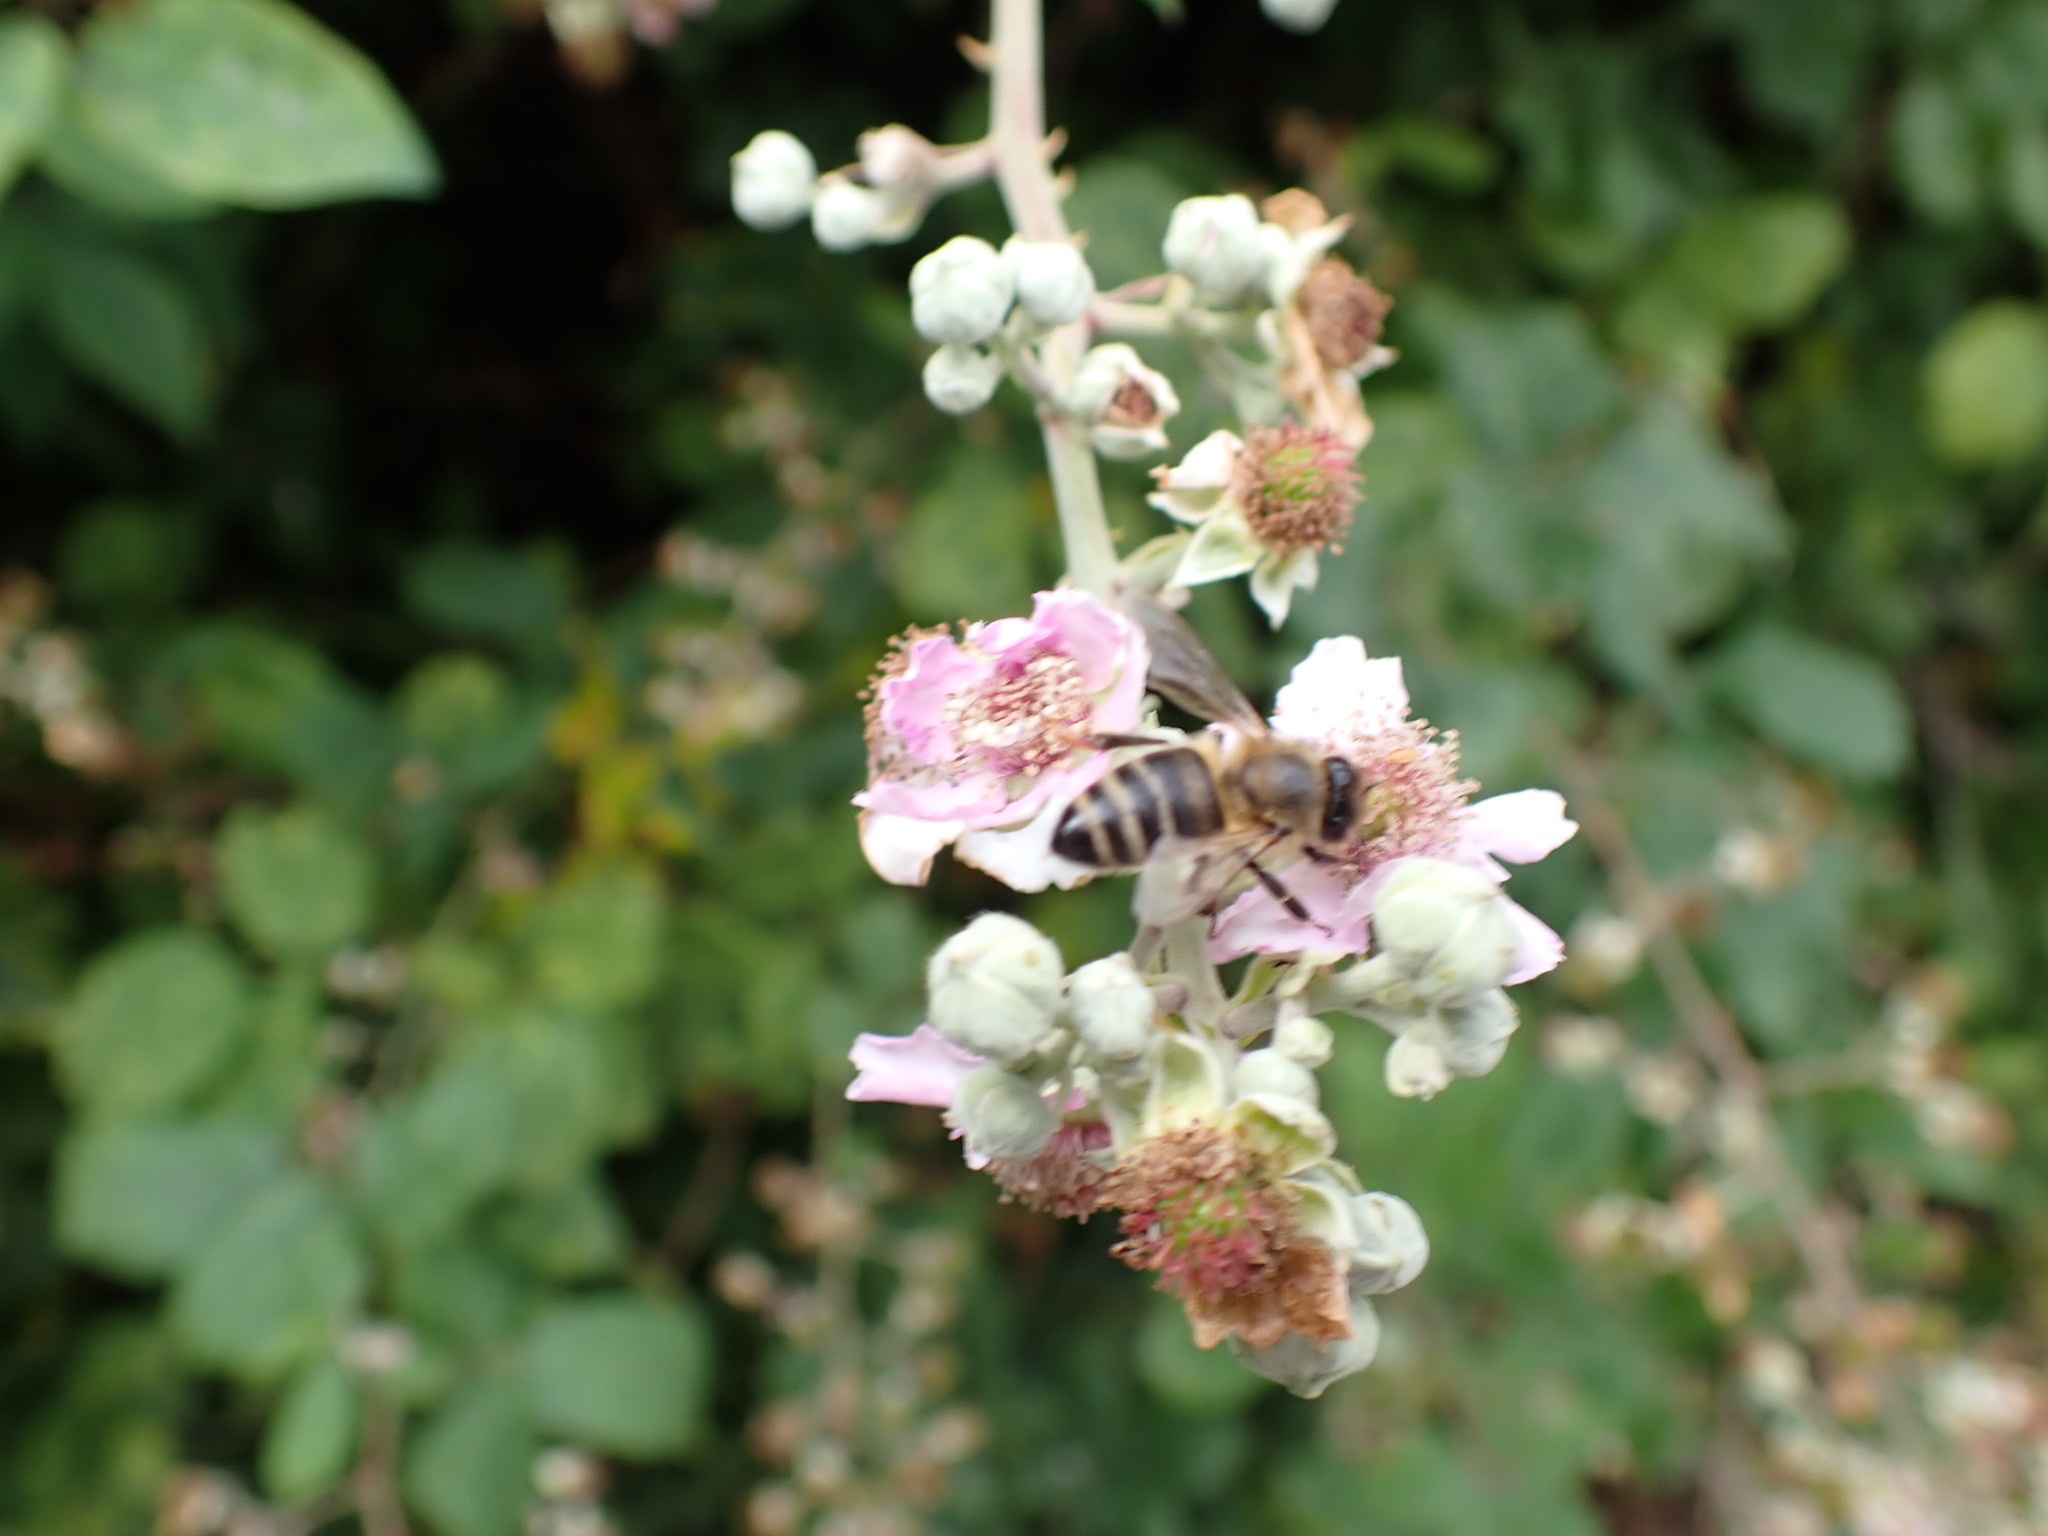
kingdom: Animalia
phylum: Arthropoda
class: Insecta
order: Hymenoptera
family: Apidae
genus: Apis
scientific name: Apis mellifera
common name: Honey bee
